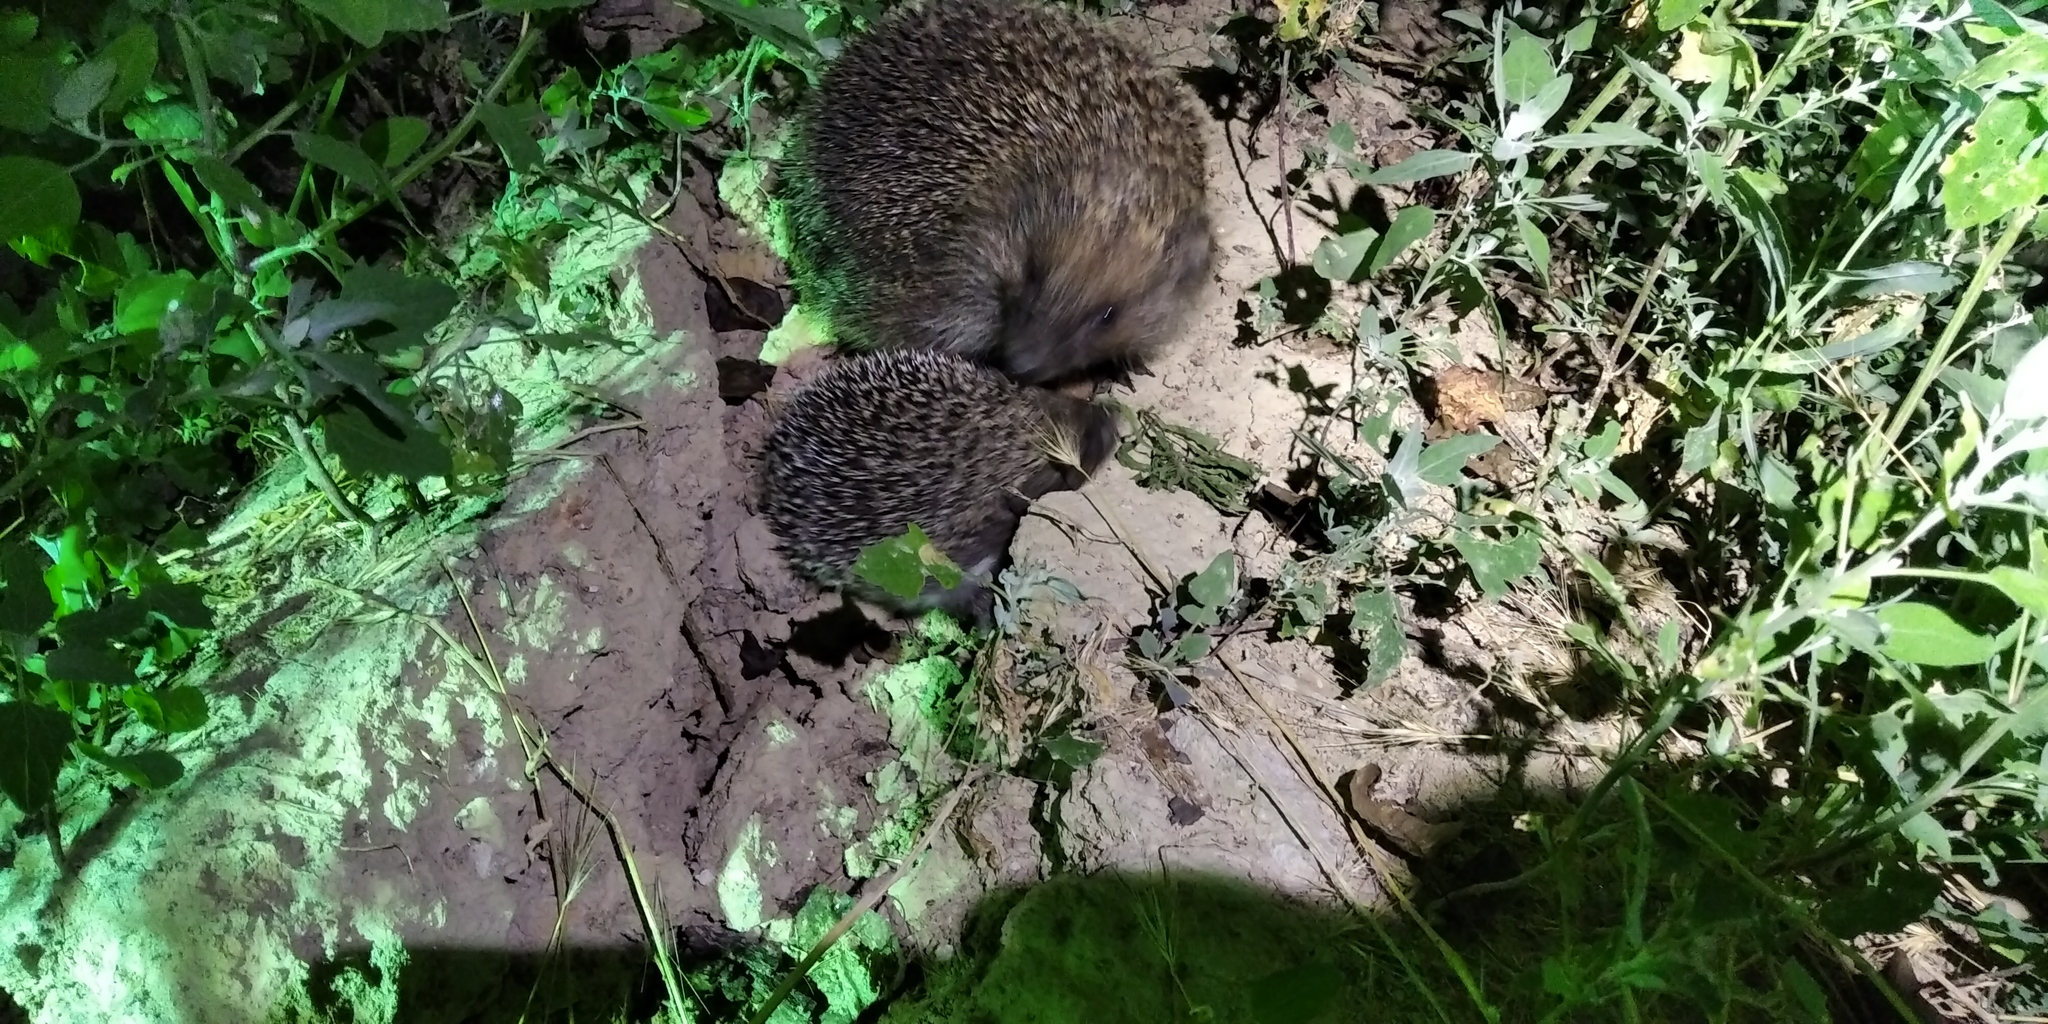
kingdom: Animalia
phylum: Chordata
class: Mammalia
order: Erinaceomorpha
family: Erinaceidae
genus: Erinaceus
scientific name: Erinaceus roumanicus
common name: Northern white-breasted hedgehog
